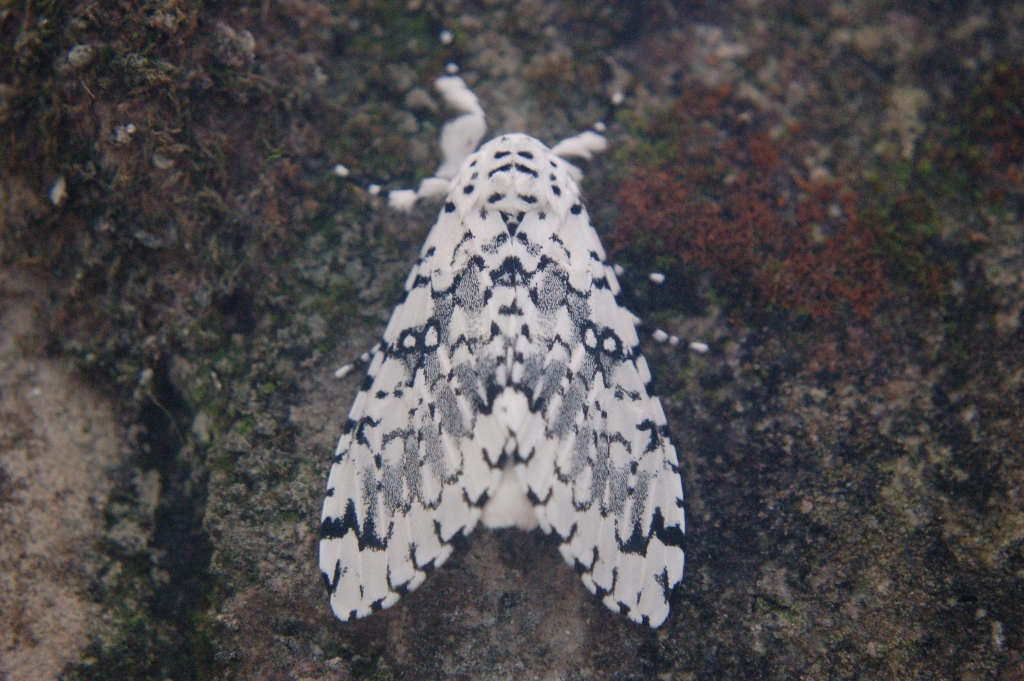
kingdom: Animalia
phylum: Arthropoda
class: Insecta
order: Lepidoptera
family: Noctuidae
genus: Lichnoptera
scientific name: Lichnoptera decora
